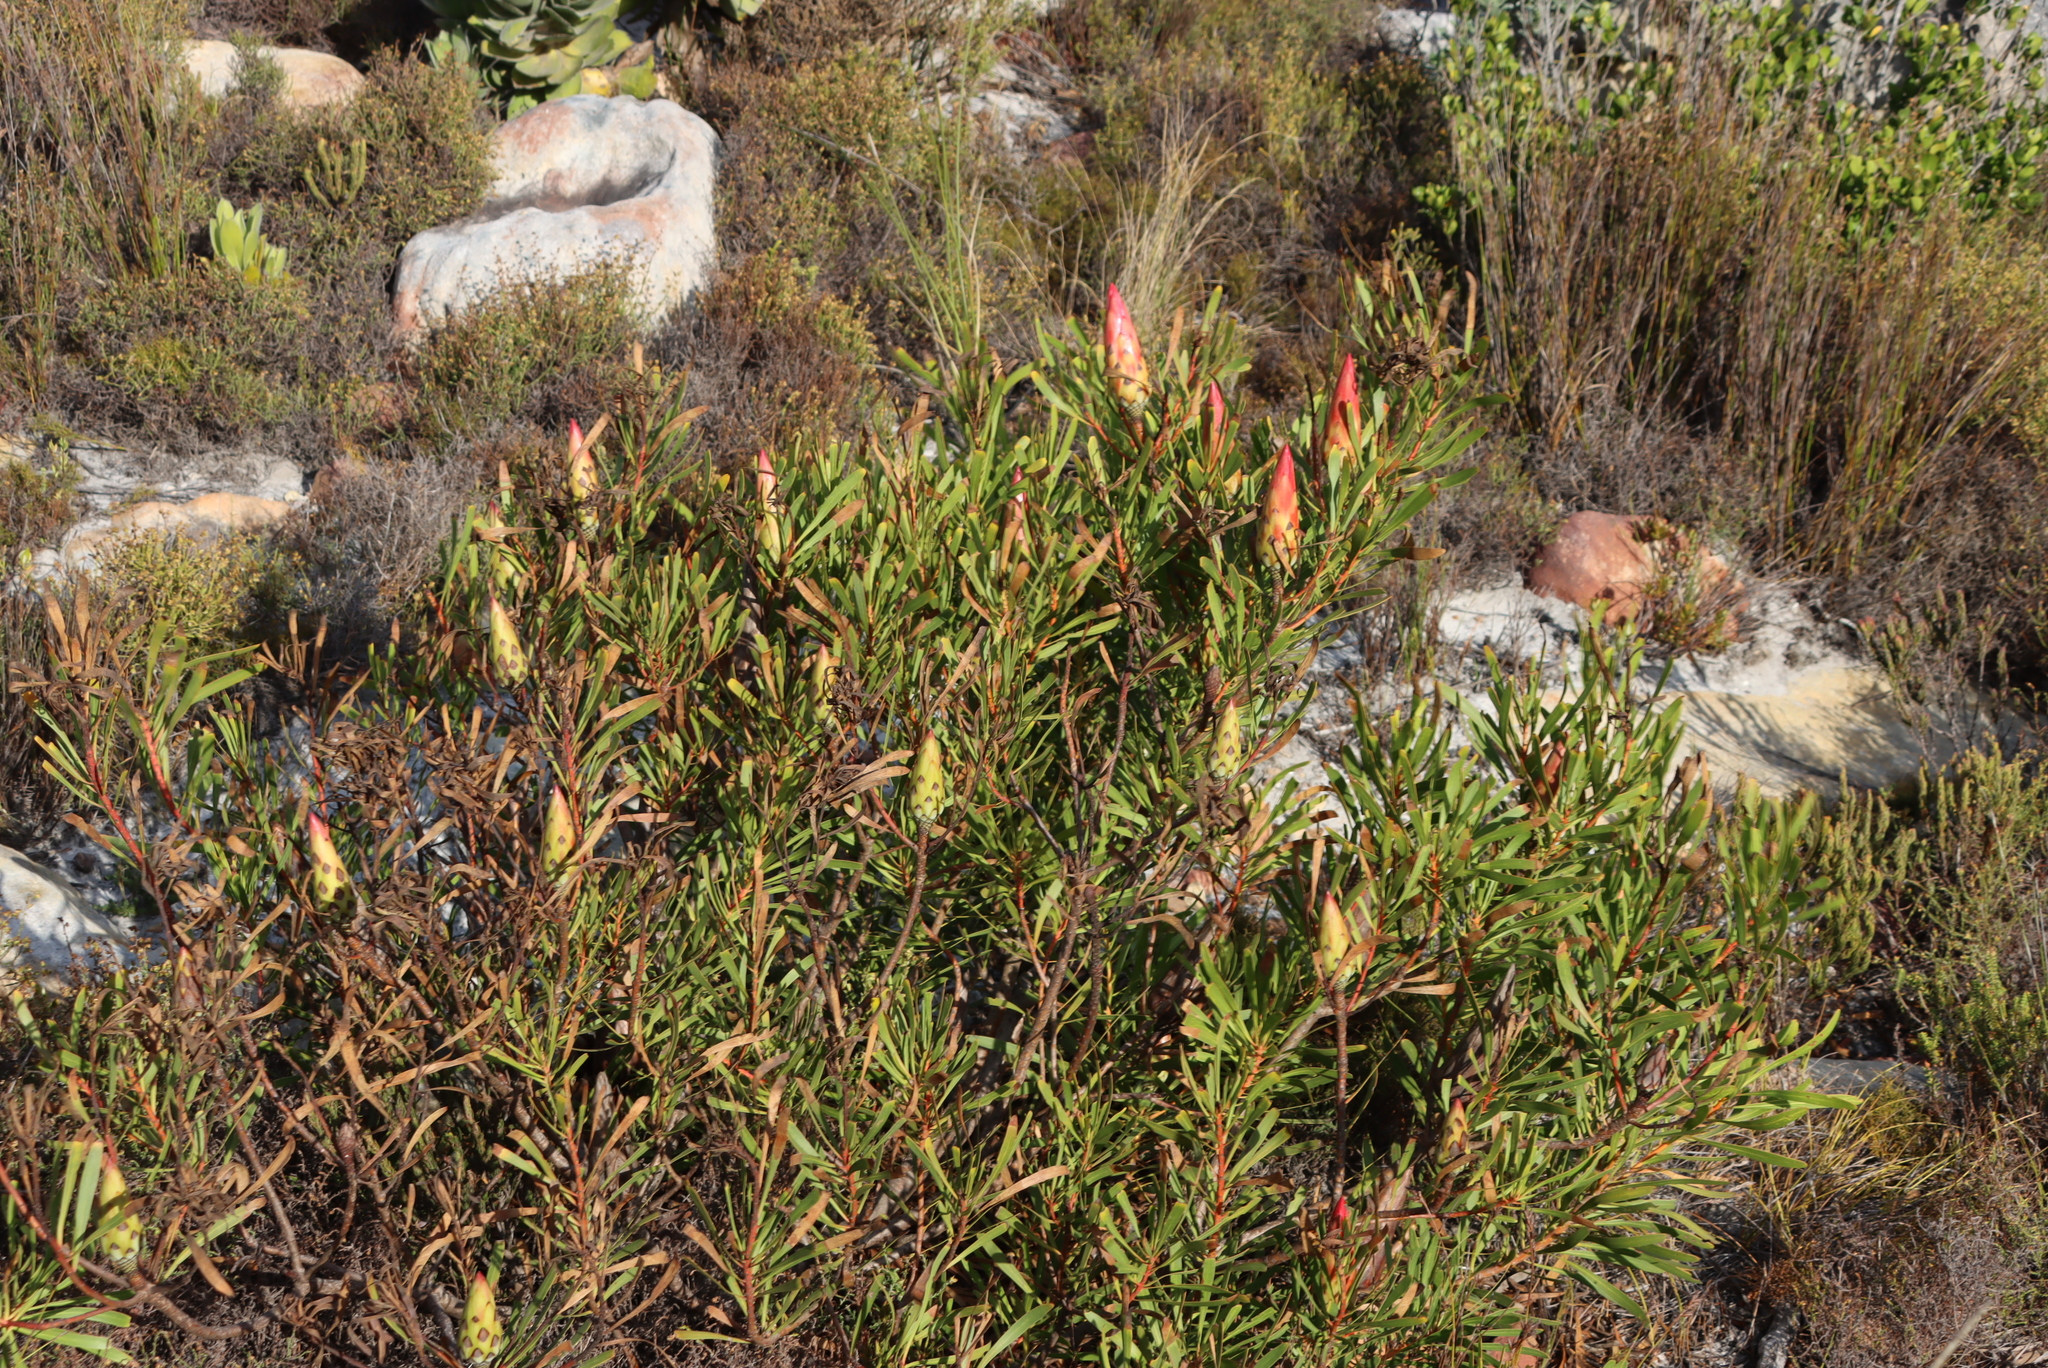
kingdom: Plantae
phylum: Tracheophyta
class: Magnoliopsida
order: Proteales
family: Proteaceae
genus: Protea
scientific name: Protea repens
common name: Sugarbush
